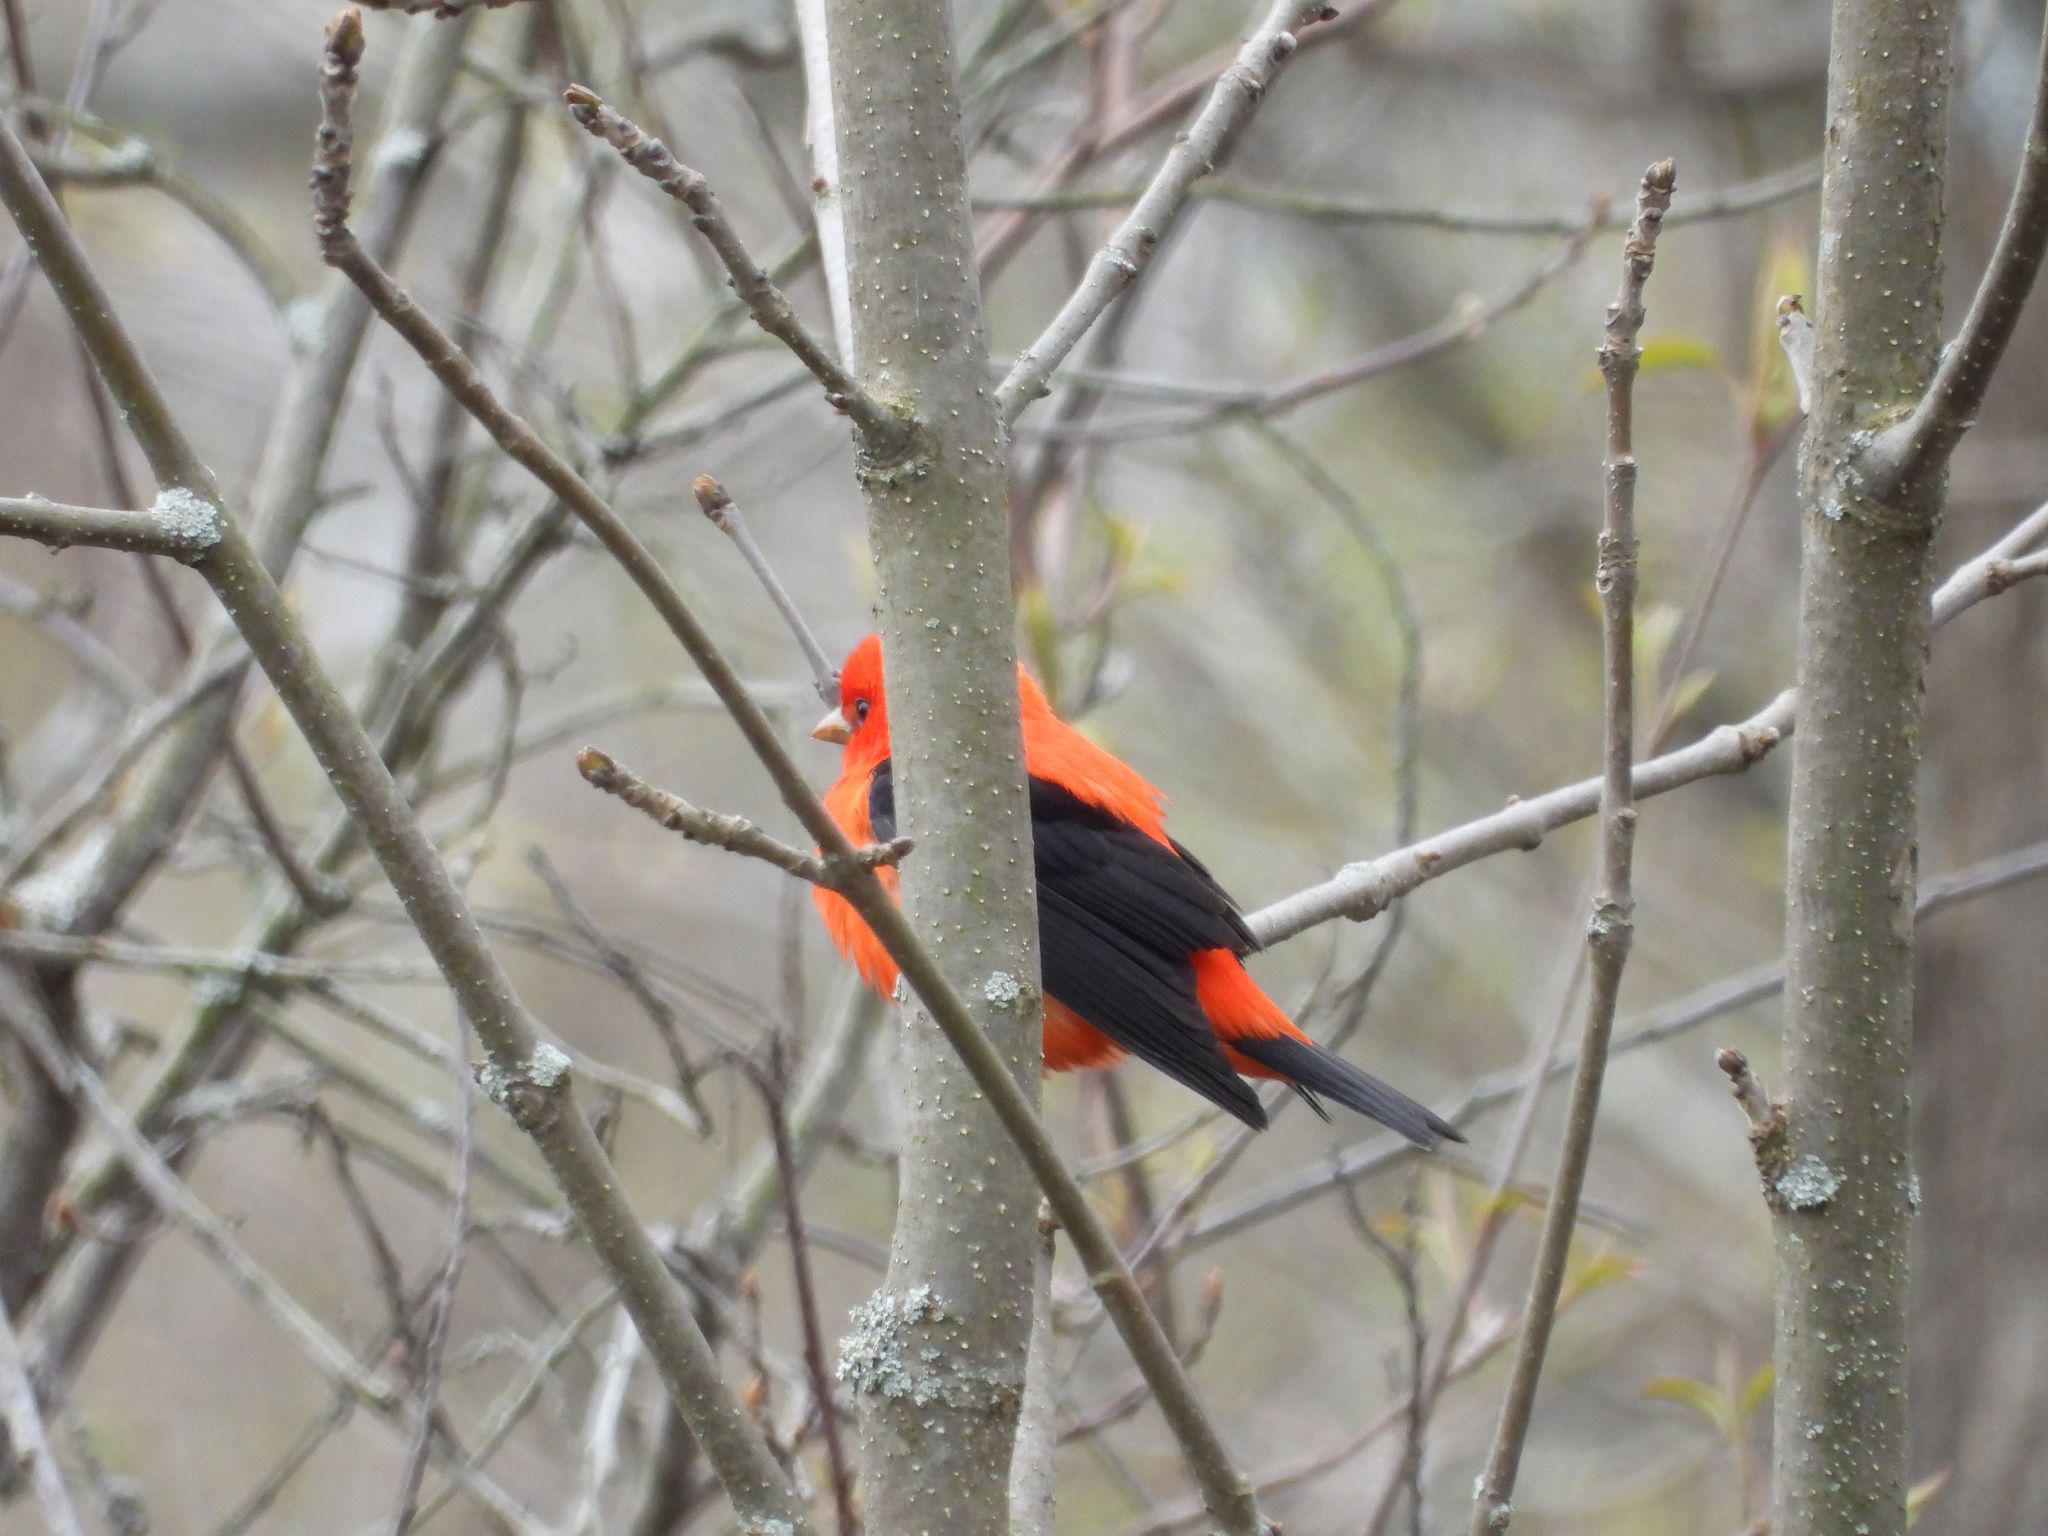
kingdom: Animalia
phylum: Chordata
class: Aves
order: Passeriformes
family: Cardinalidae
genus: Piranga
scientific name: Piranga olivacea
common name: Scarlet tanager
